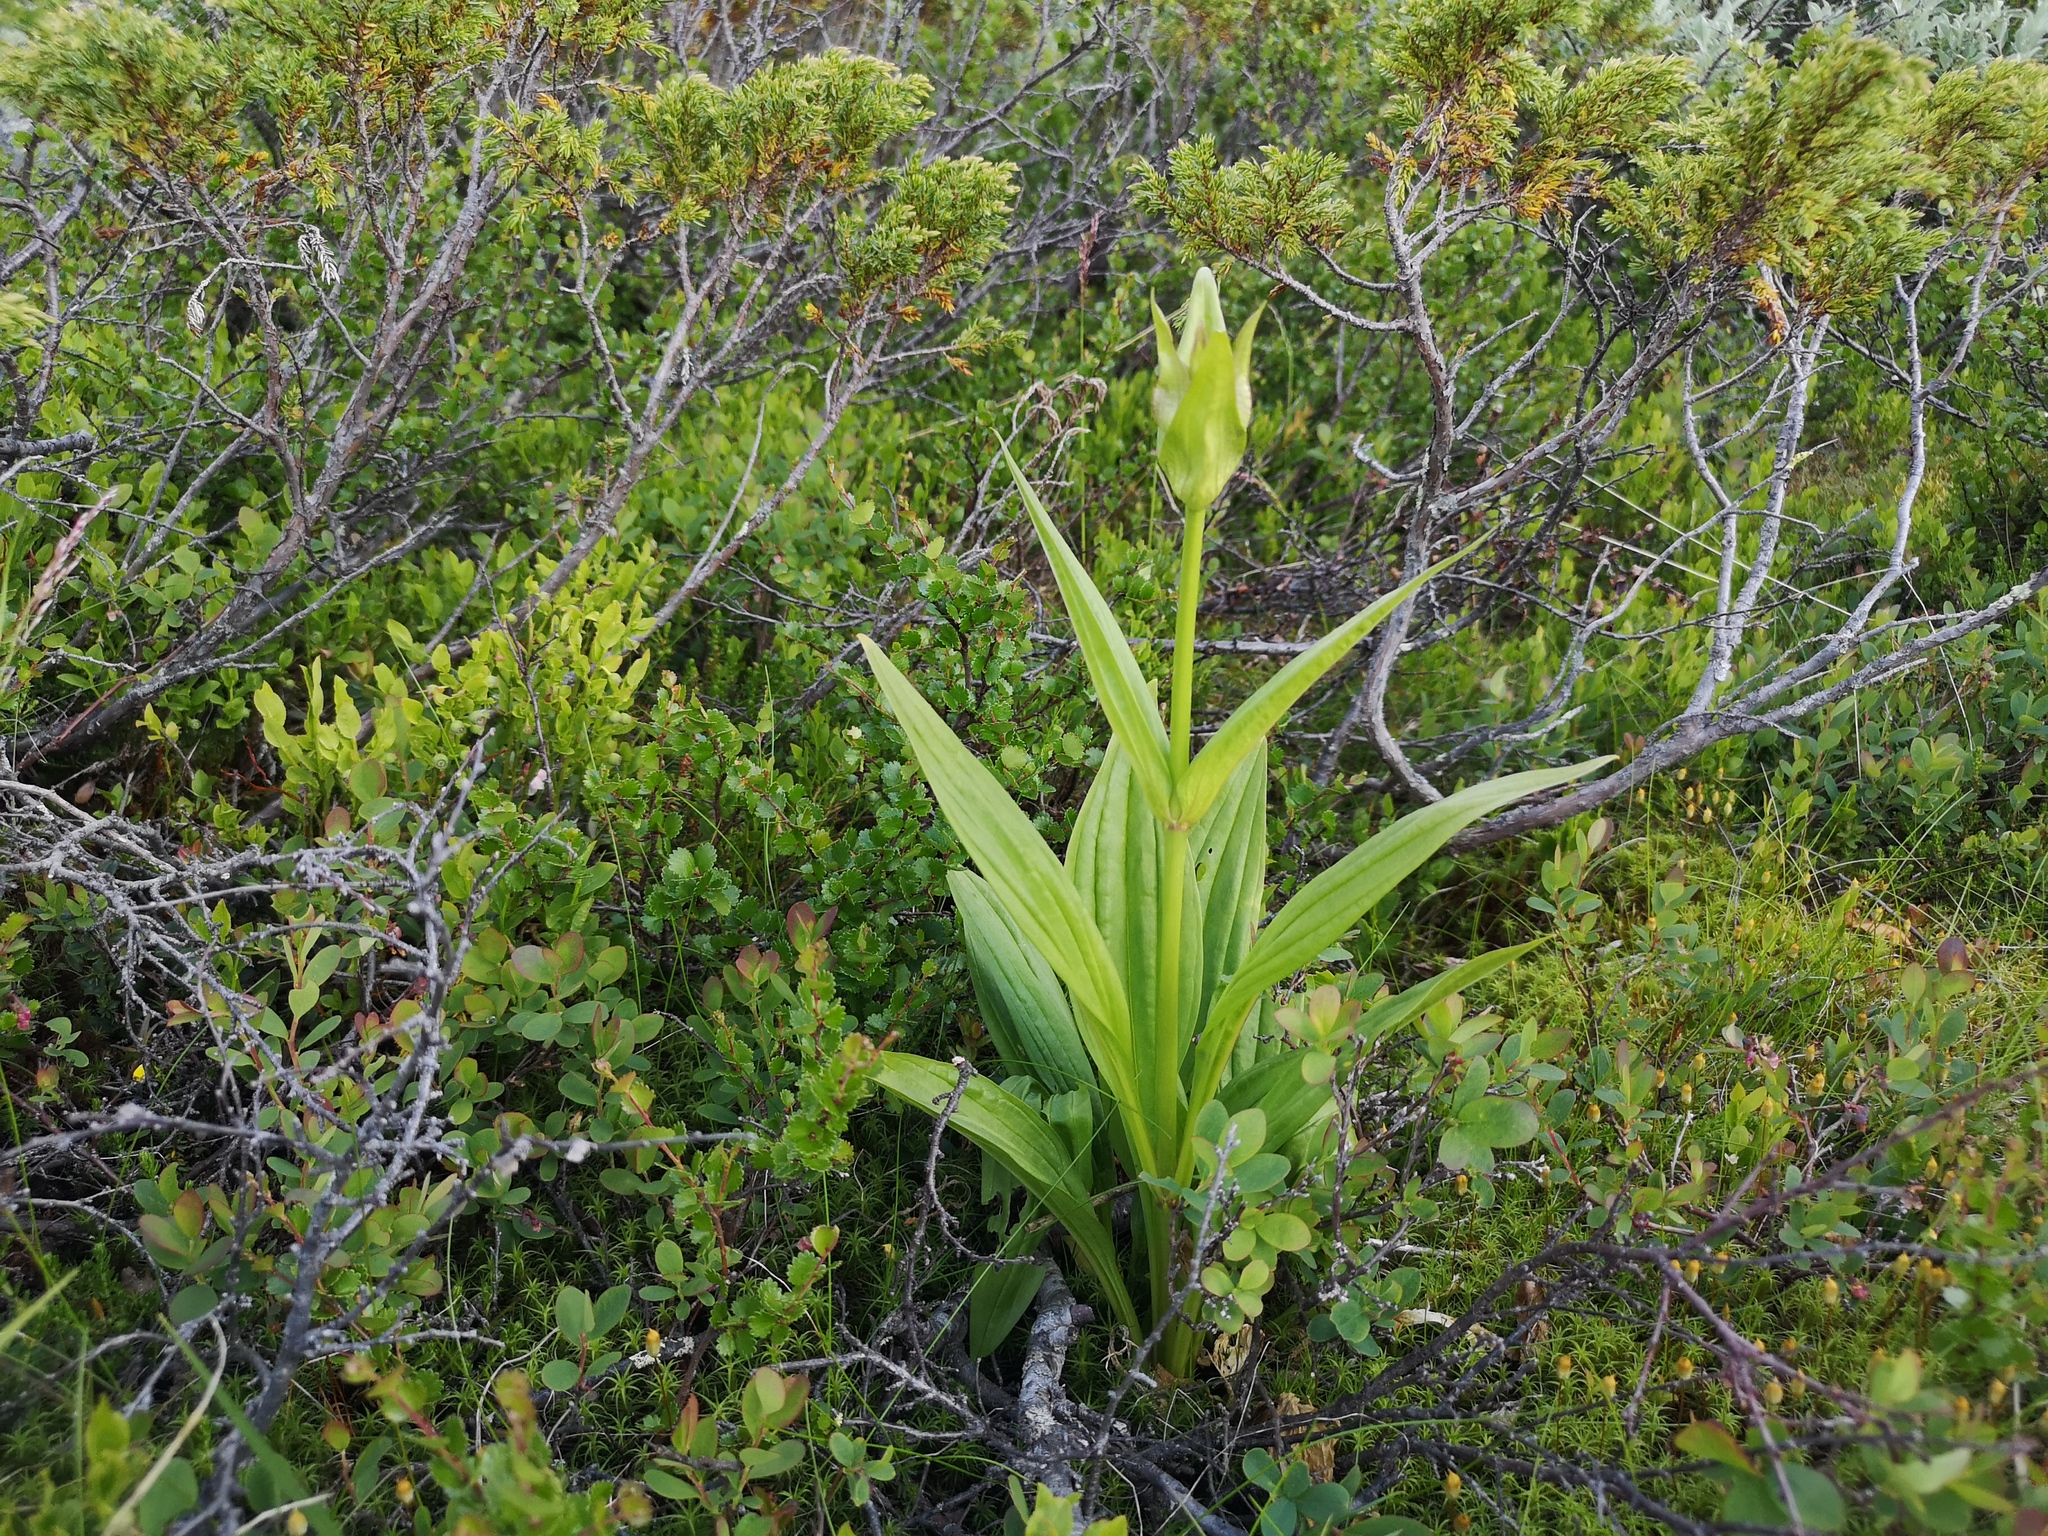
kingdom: Plantae
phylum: Tracheophyta
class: Magnoliopsida
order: Gentianales
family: Gentianaceae
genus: Gentiana
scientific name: Gentiana purpurea
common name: Purple gentian
